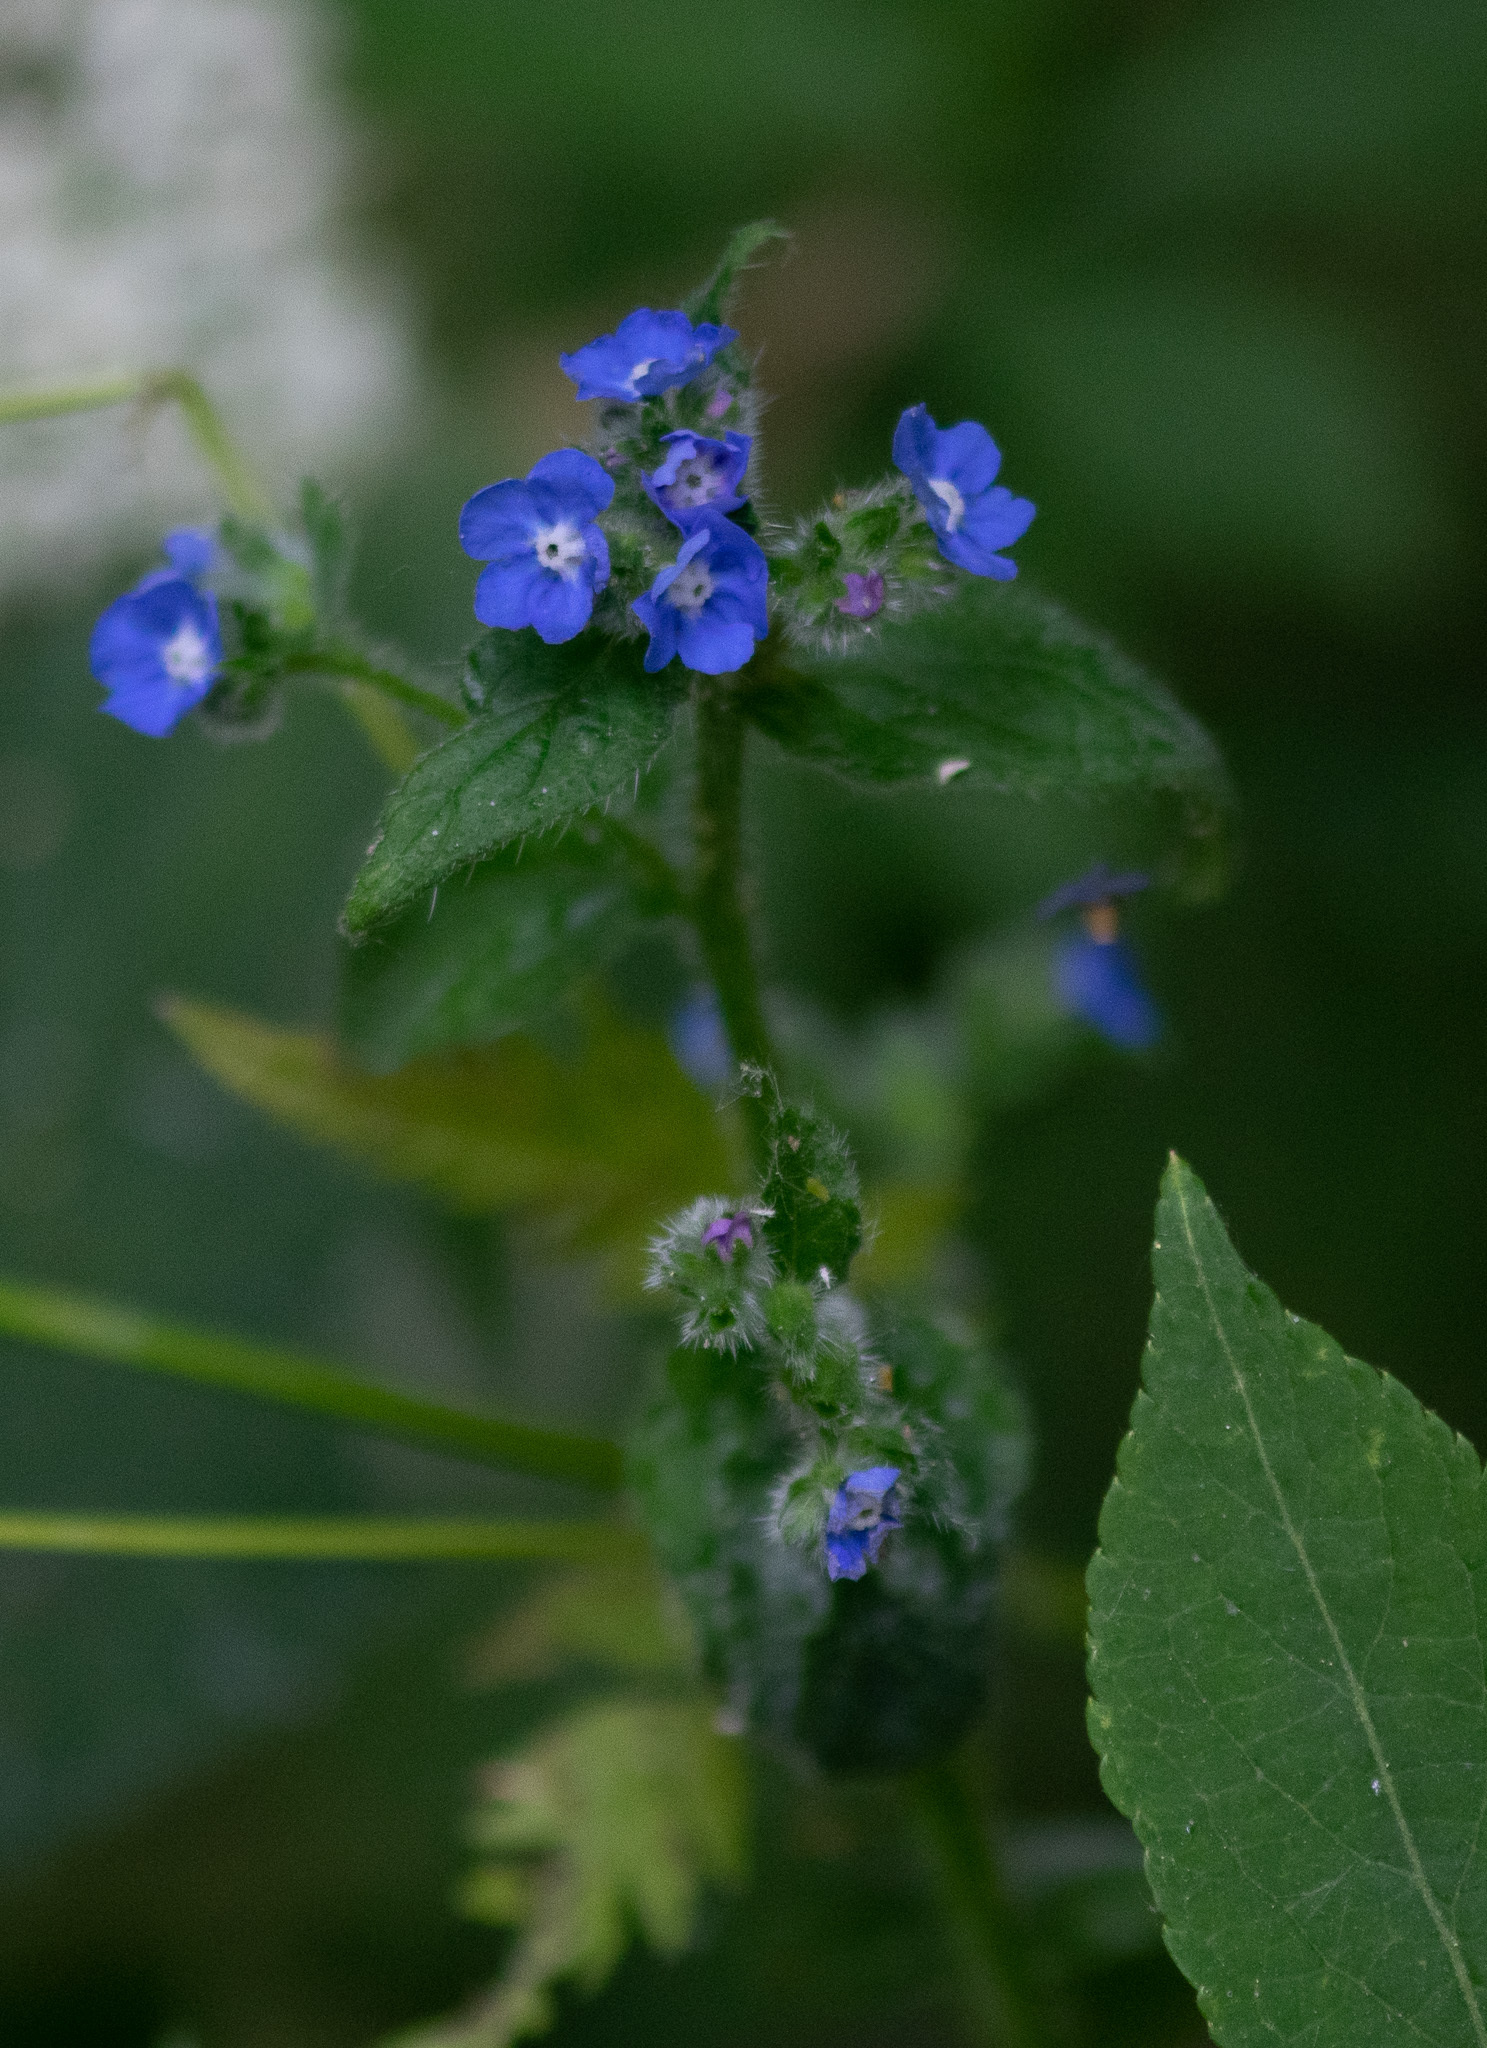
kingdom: Plantae
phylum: Tracheophyta
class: Magnoliopsida
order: Boraginales
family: Boraginaceae
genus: Pentaglottis
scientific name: Pentaglottis sempervirens
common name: Green alkanet
